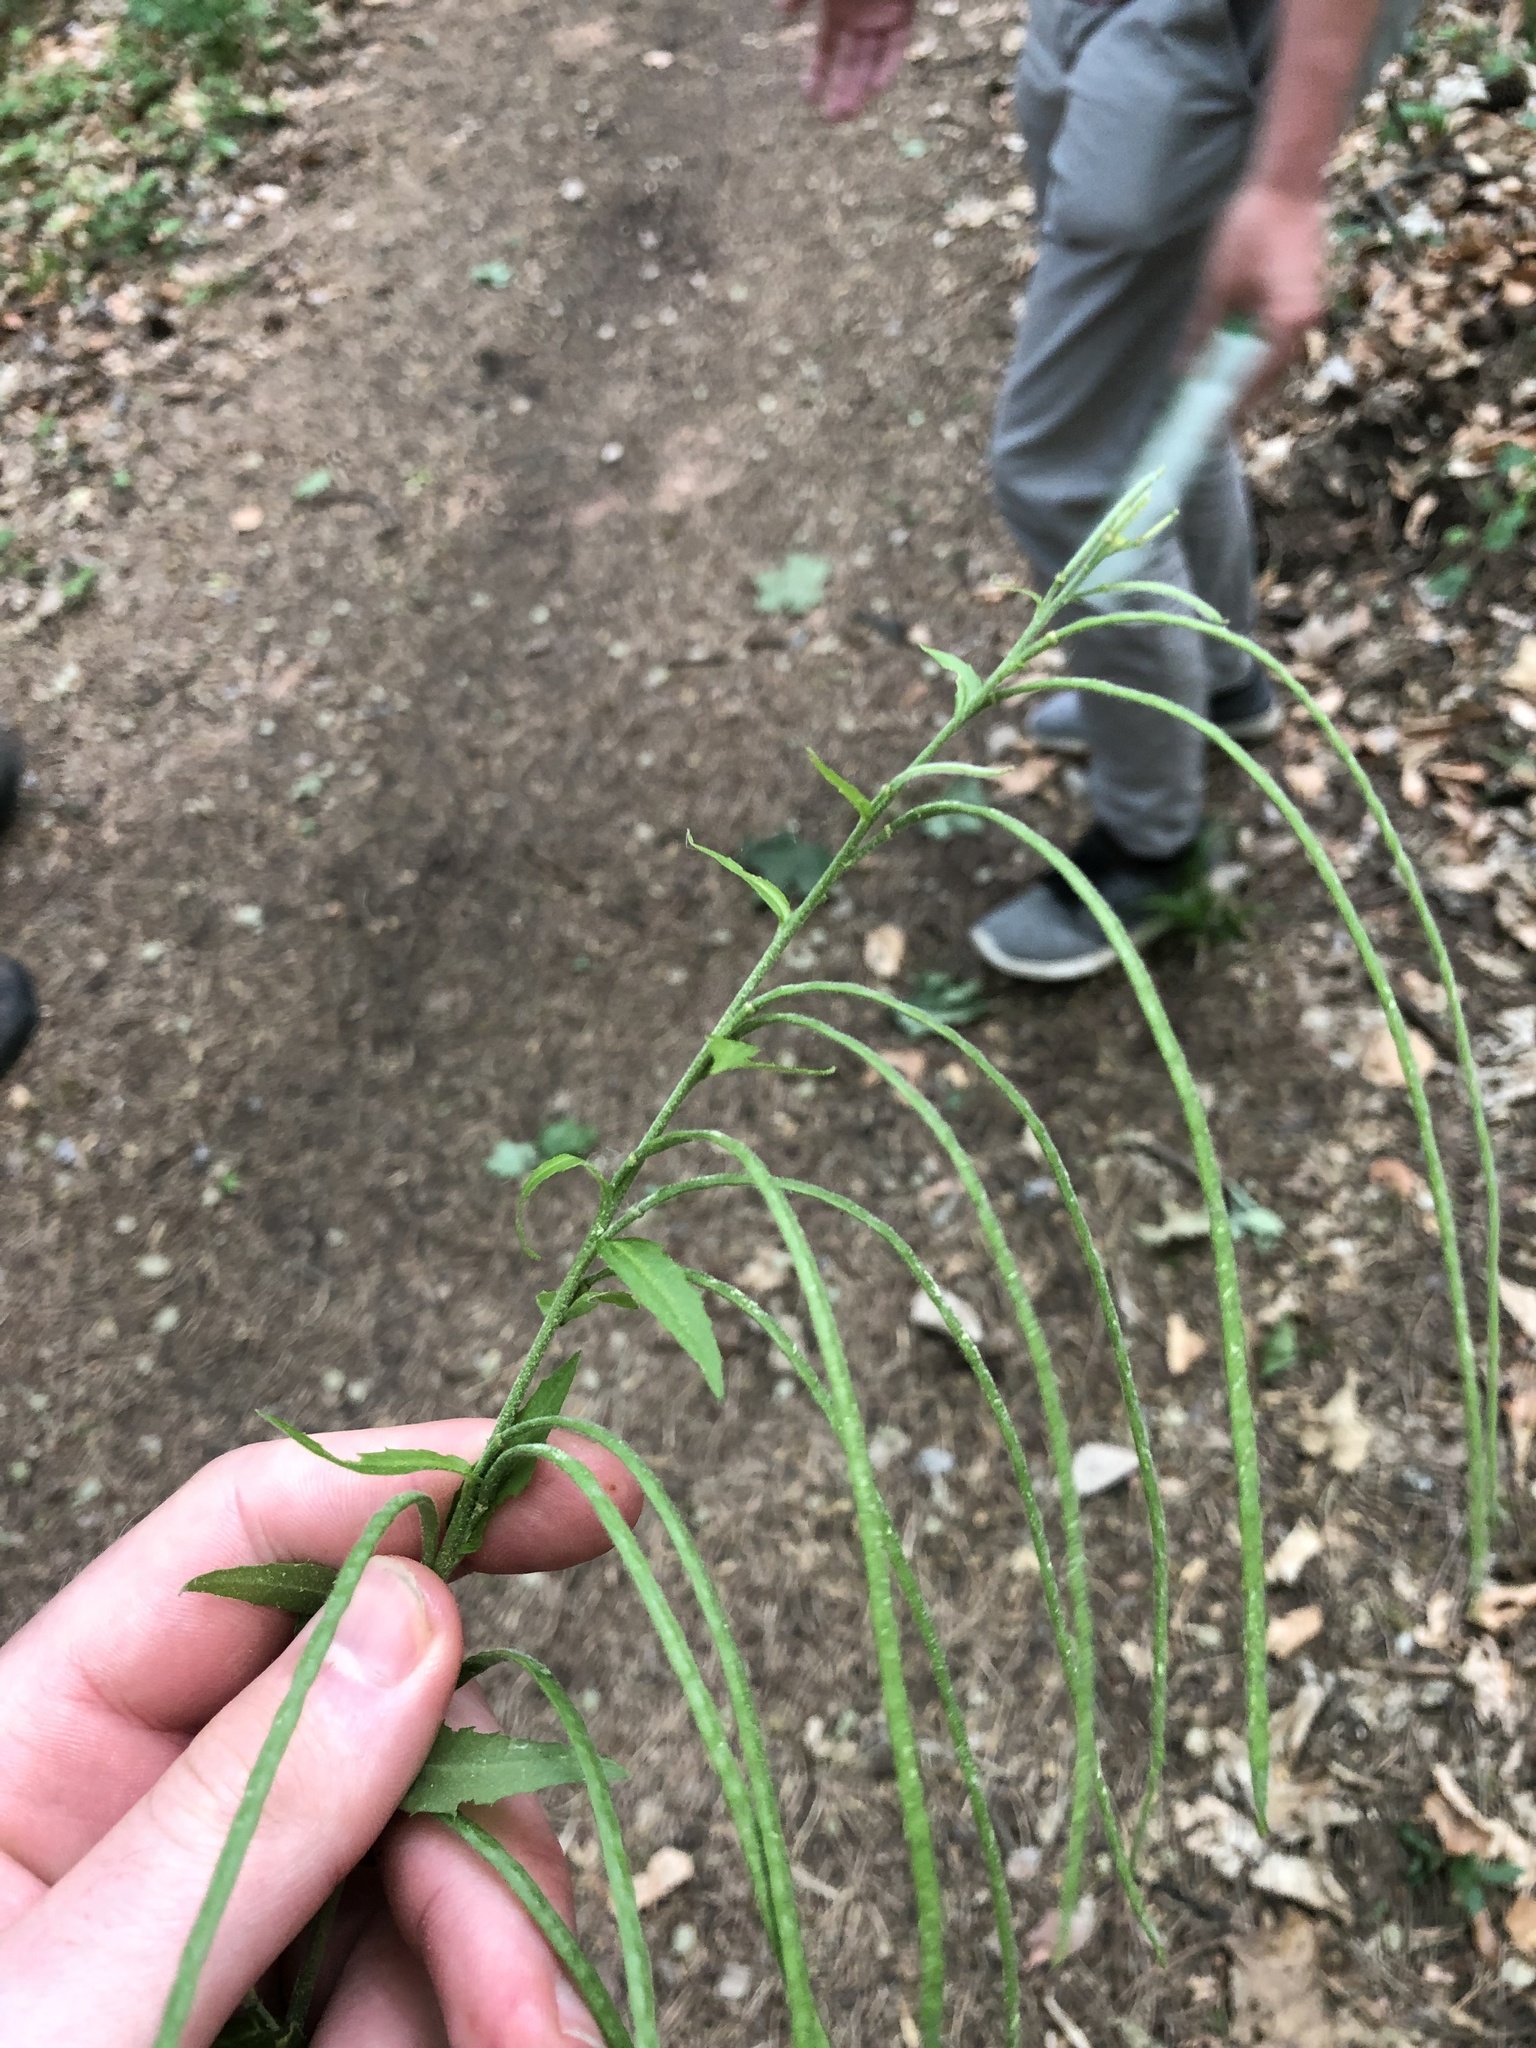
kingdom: Plantae
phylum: Tracheophyta
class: Magnoliopsida
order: Brassicales
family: Brassicaceae
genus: Pseudoturritis
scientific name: Pseudoturritis turrita
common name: Tower cress
